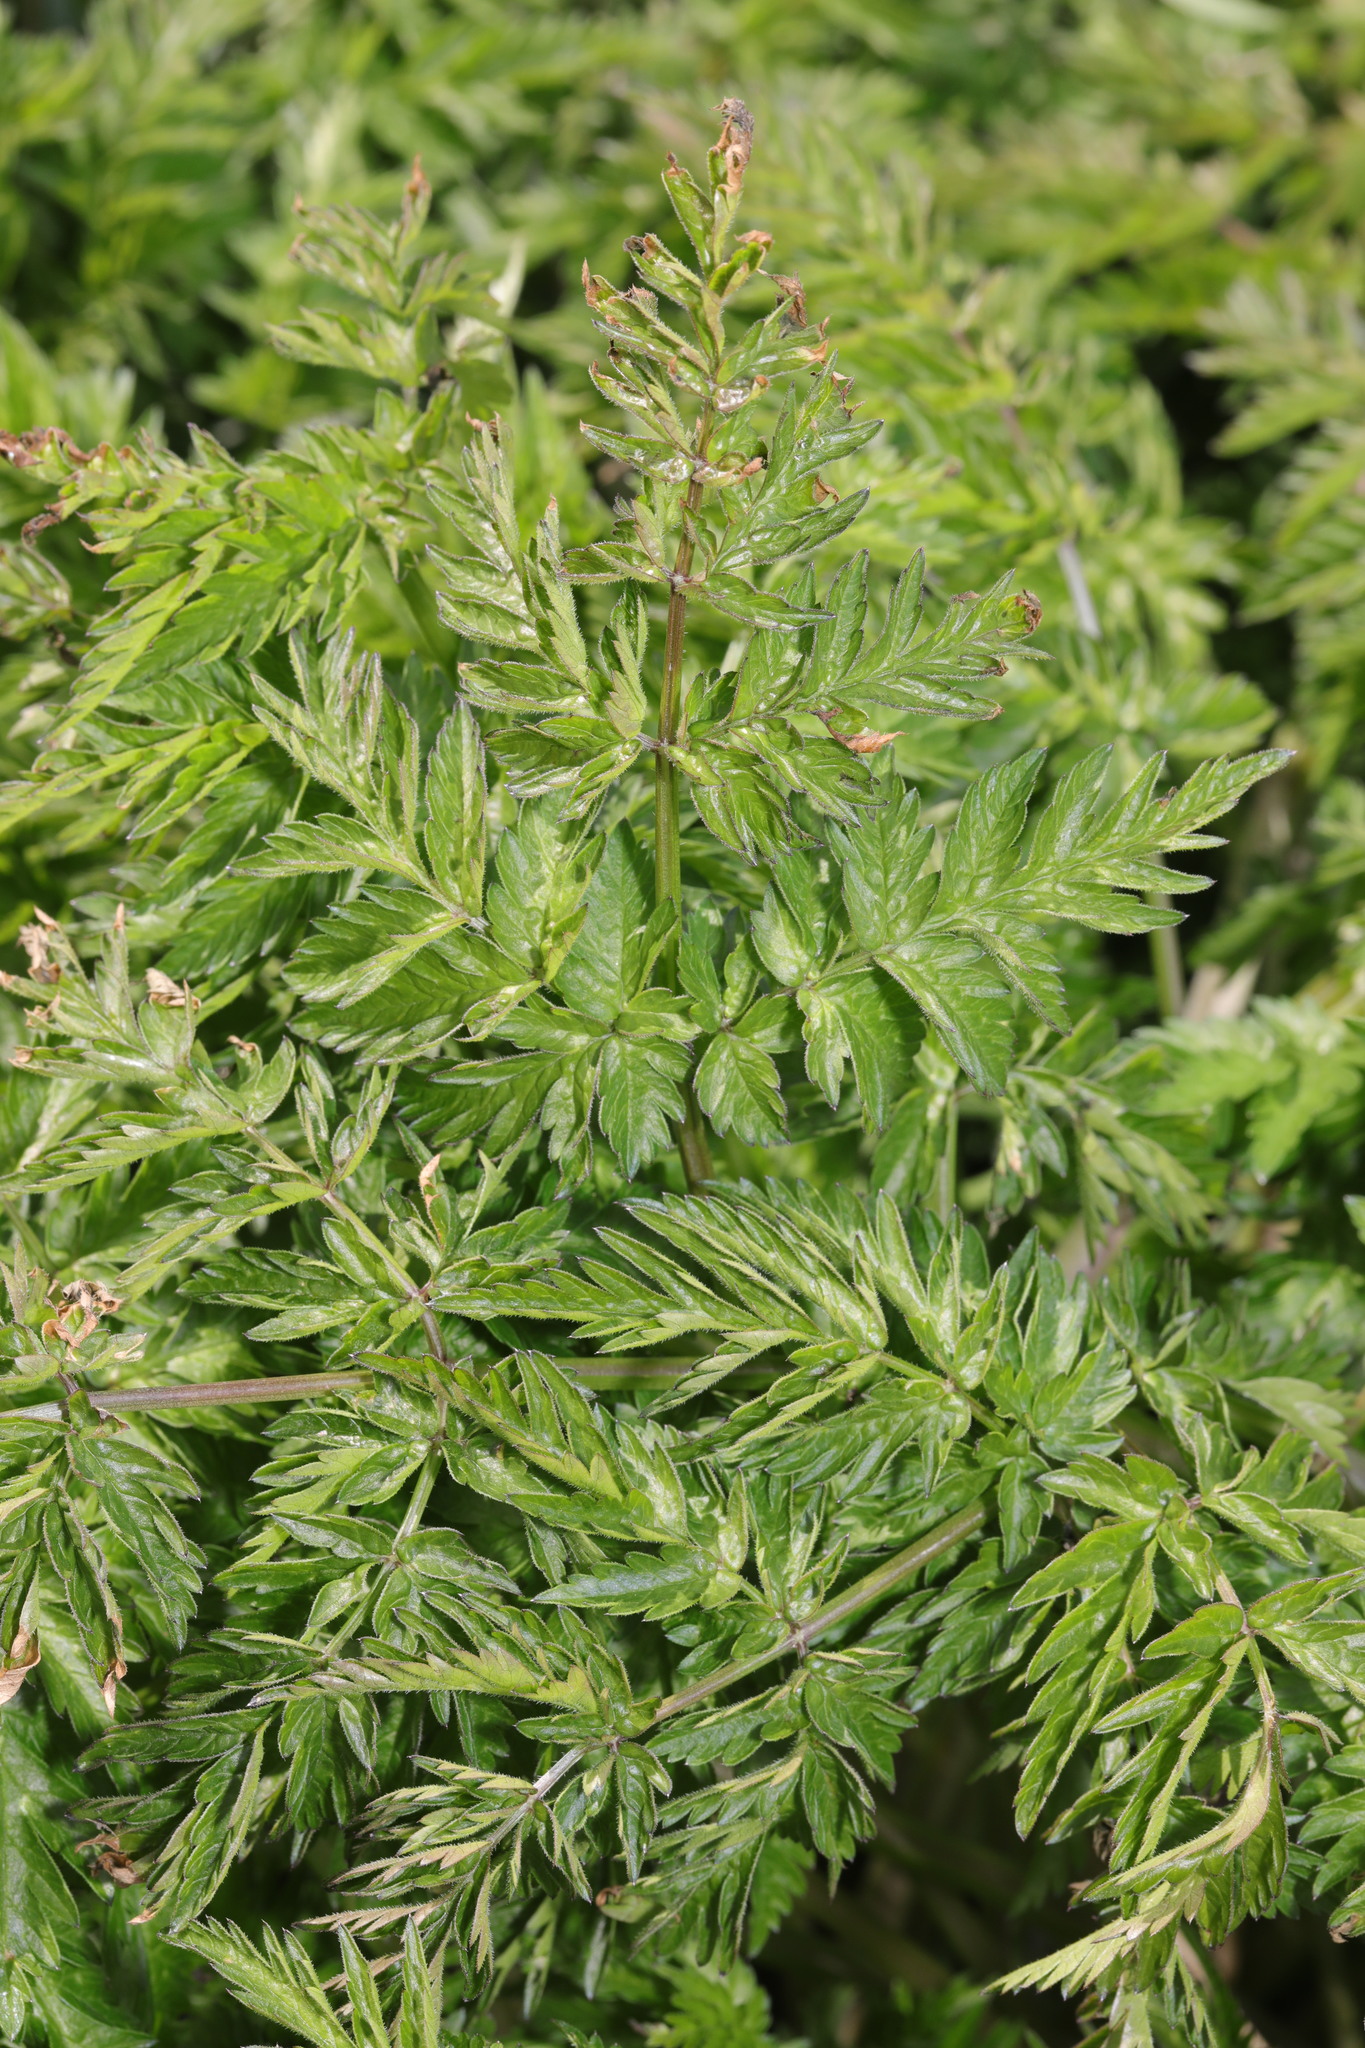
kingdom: Plantae
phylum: Tracheophyta
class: Magnoliopsida
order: Apiales
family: Apiaceae
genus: Anthriscus
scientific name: Anthriscus sylvestris
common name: Cow parsley
